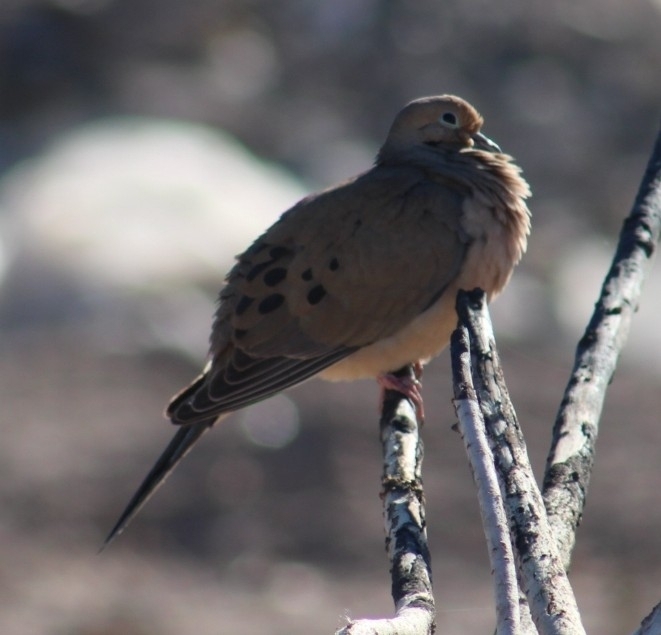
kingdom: Animalia
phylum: Chordata
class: Aves
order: Columbiformes
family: Columbidae
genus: Zenaida
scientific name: Zenaida macroura
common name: Mourning dove
